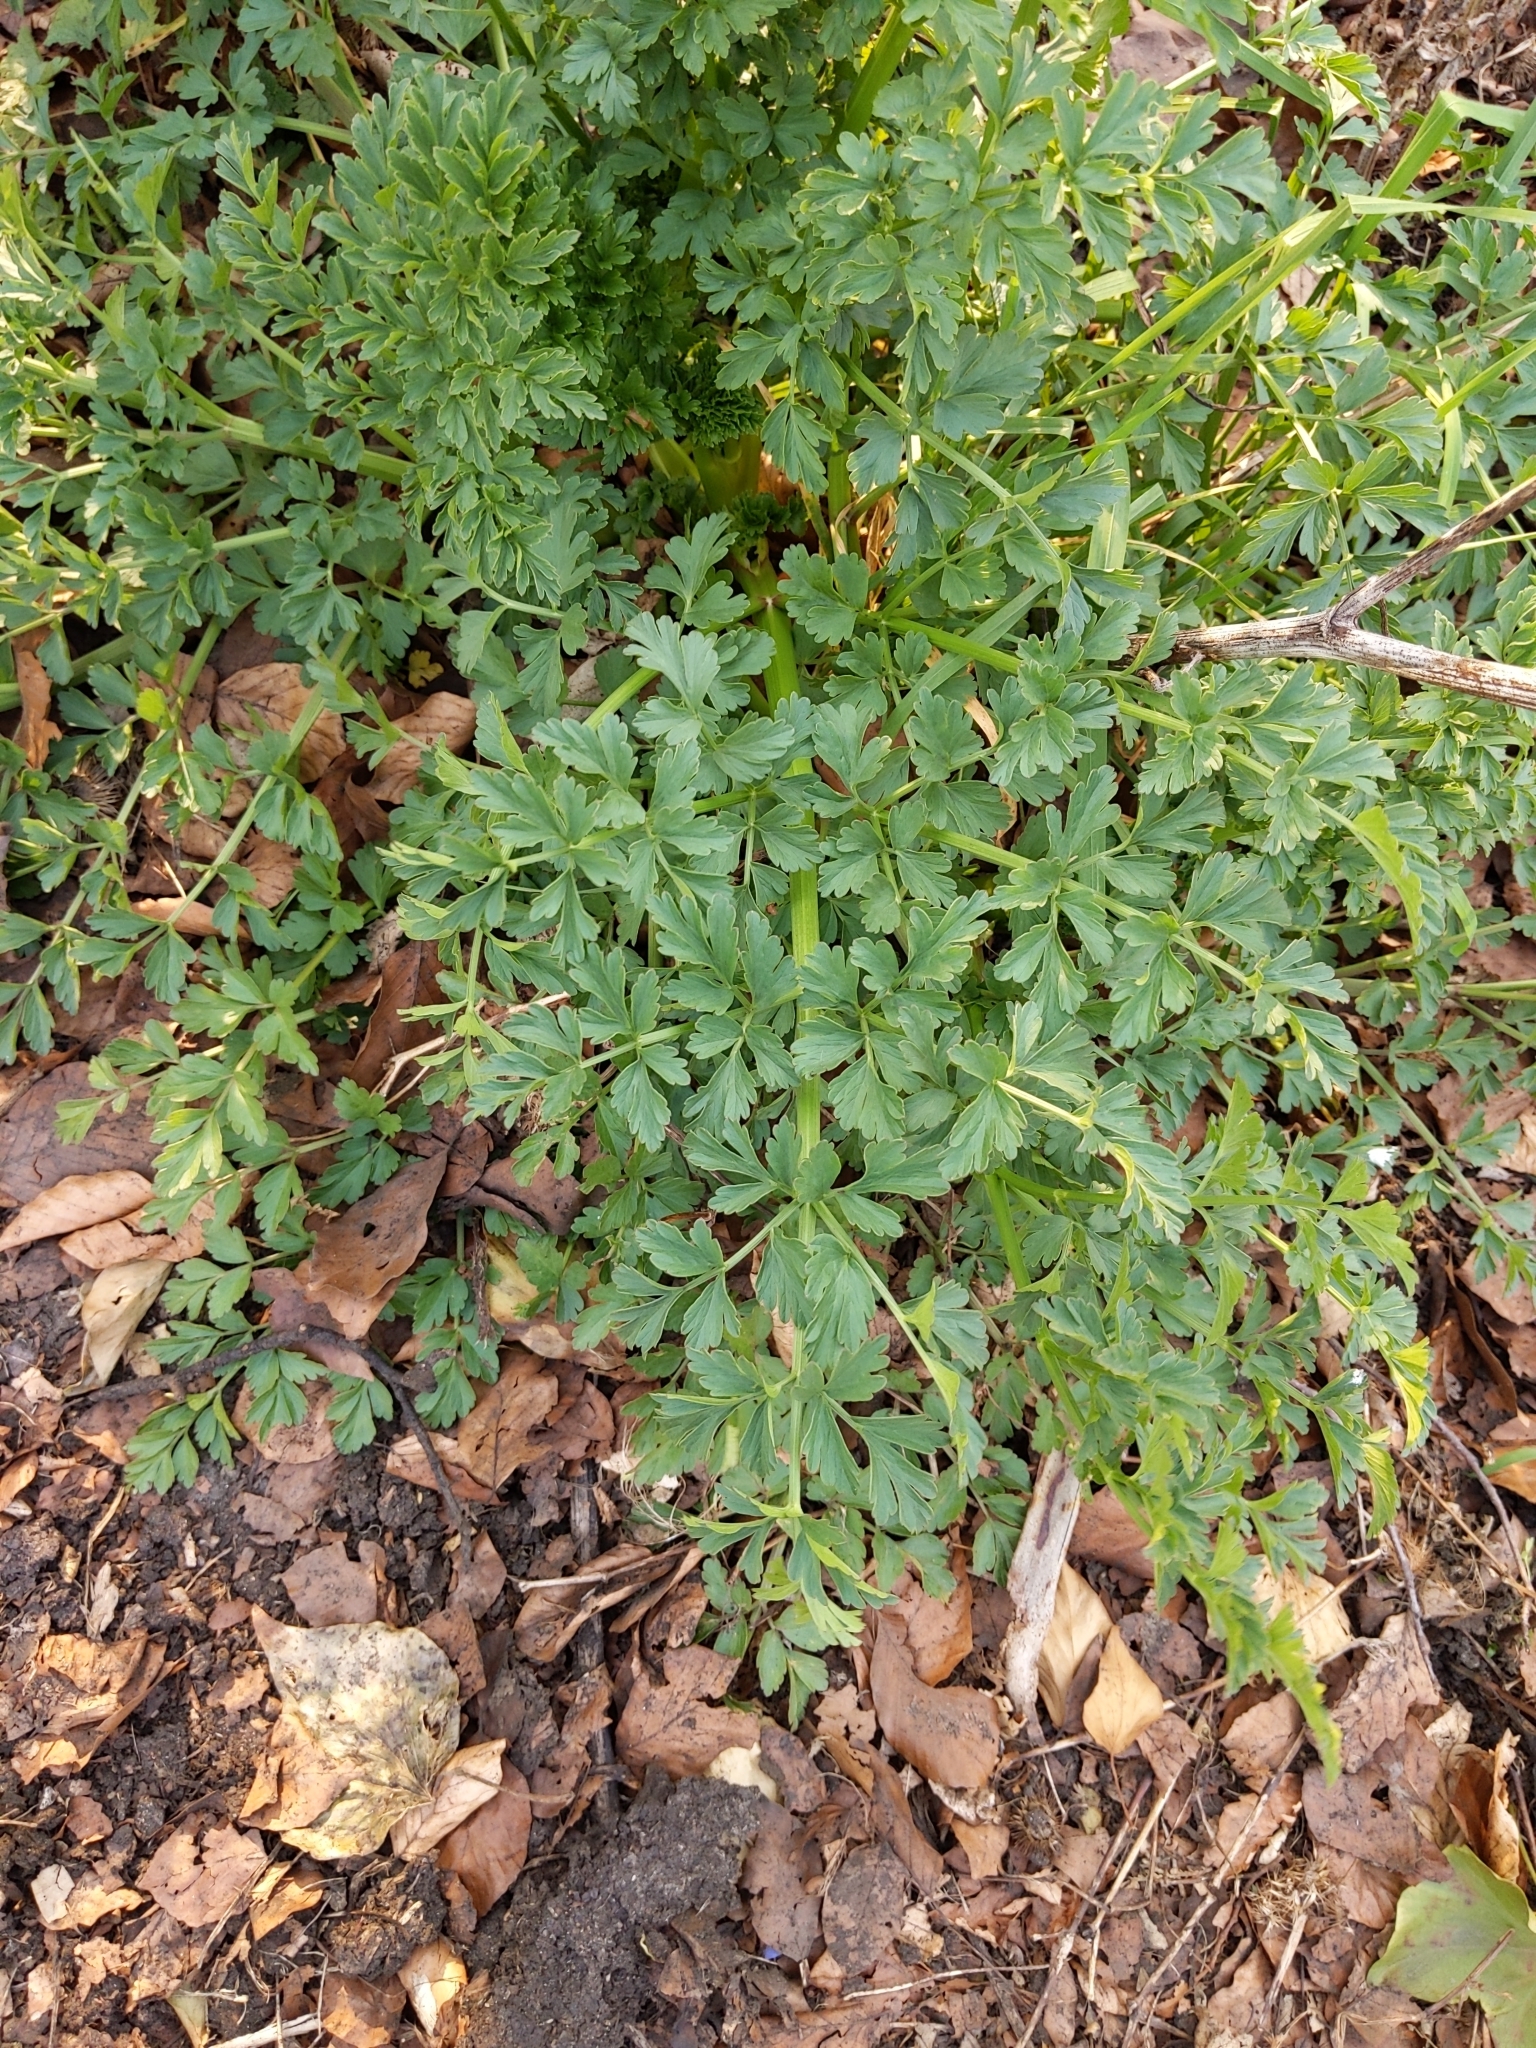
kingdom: Plantae
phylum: Tracheophyta
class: Magnoliopsida
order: Apiales
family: Apiaceae
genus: Oenanthe
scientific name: Oenanthe crocata
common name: Hemlock water-dropwort
